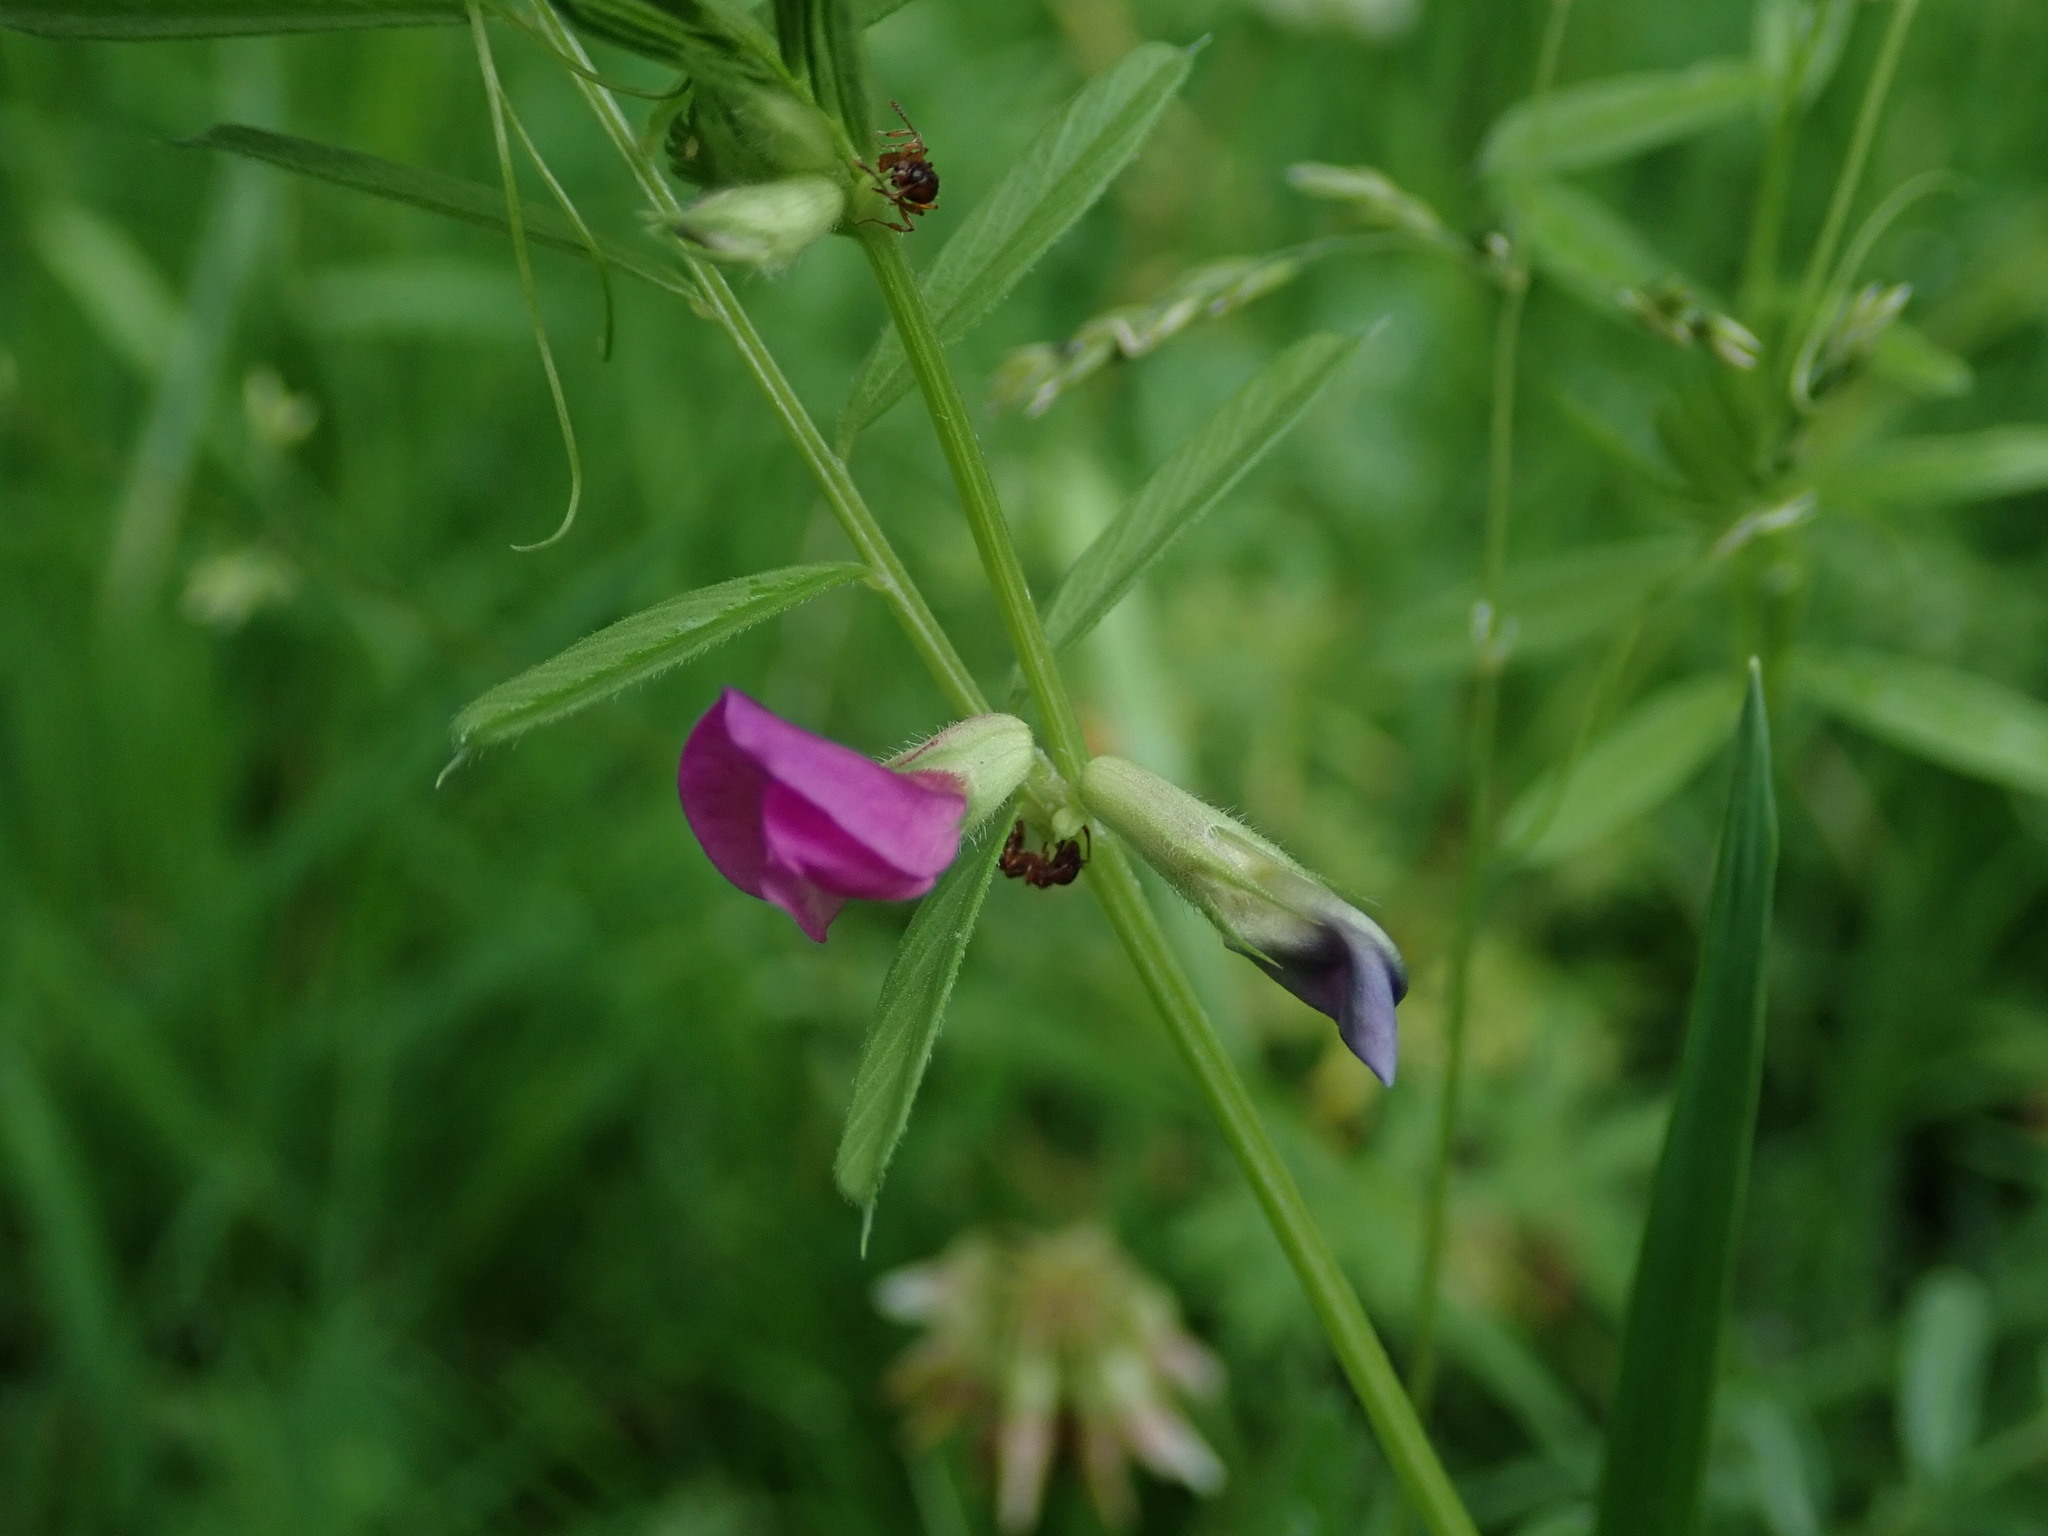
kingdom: Plantae
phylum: Tracheophyta
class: Magnoliopsida
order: Fabales
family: Fabaceae
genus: Vicia
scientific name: Vicia sativa
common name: Garden vetch
